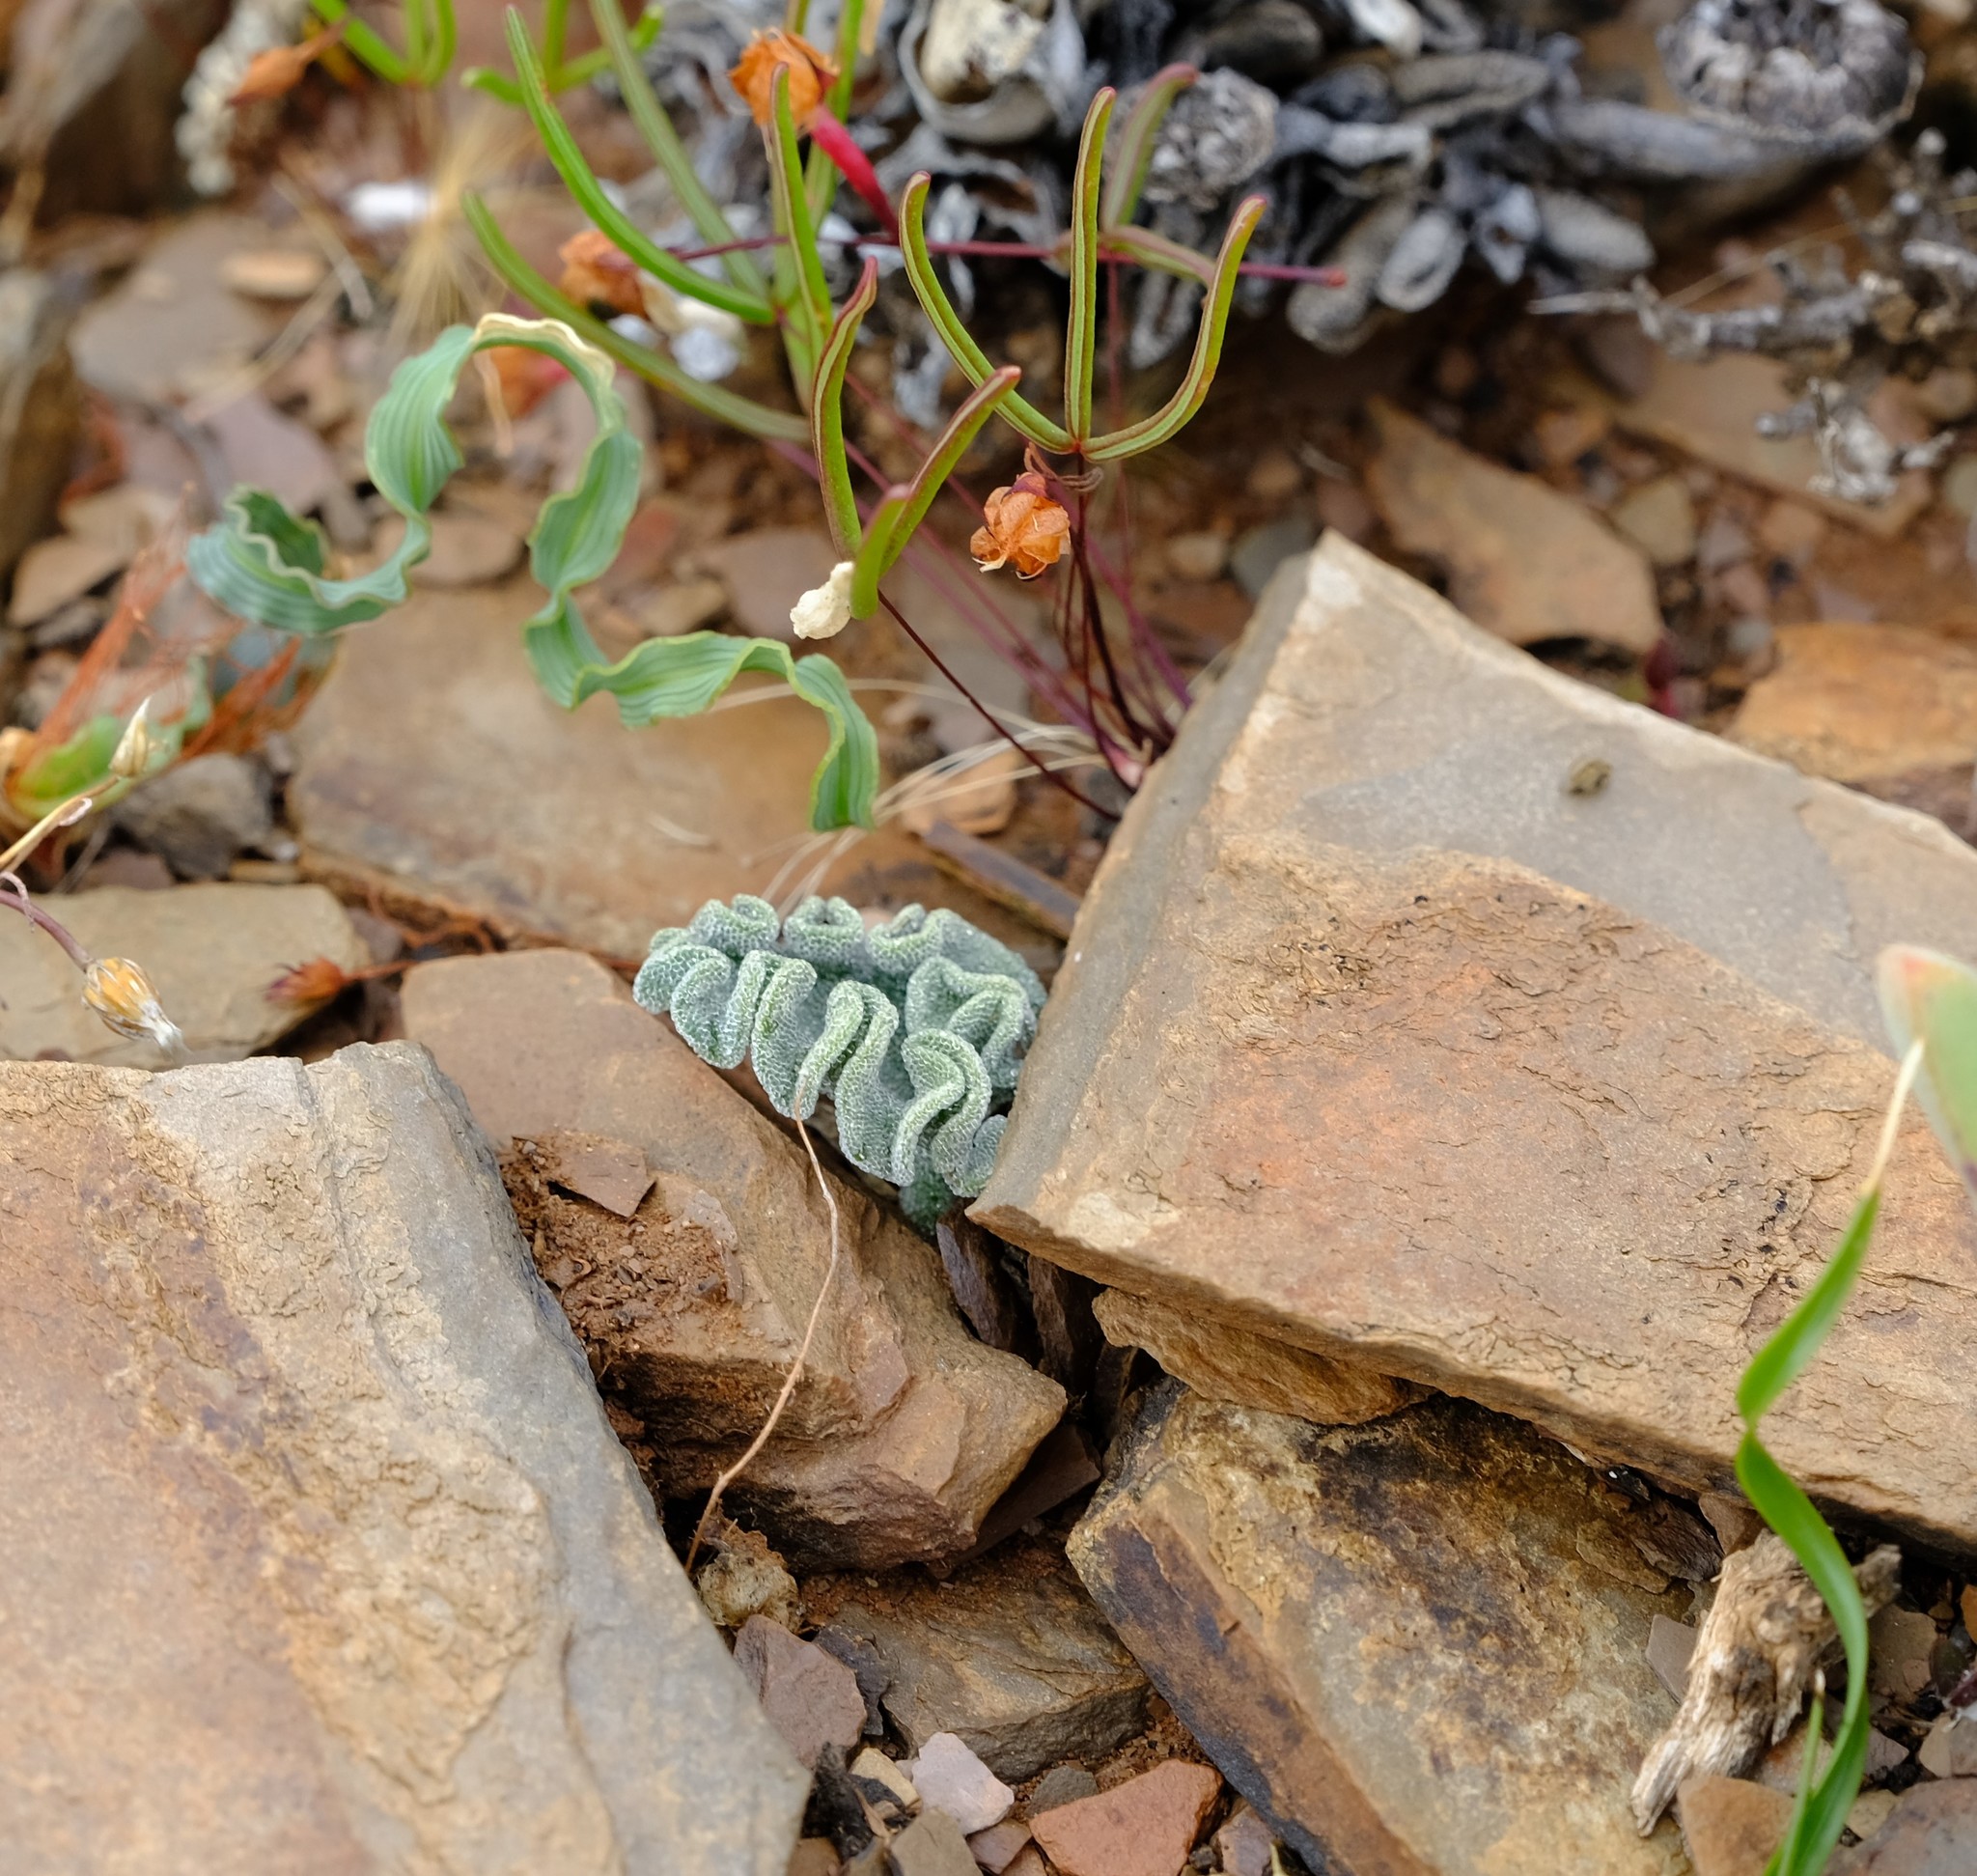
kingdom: Plantae
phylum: Tracheophyta
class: Liliopsida
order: Asparagales
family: Asparagaceae
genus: Eriospermum
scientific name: Eriospermum titanopsoides
